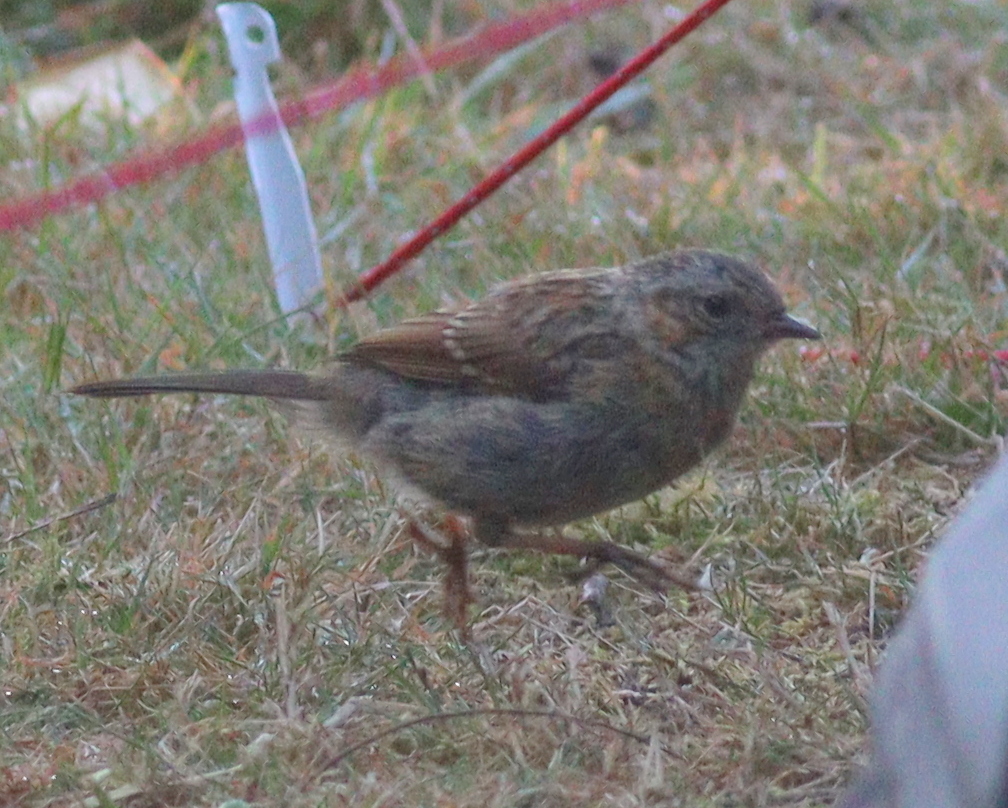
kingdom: Animalia
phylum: Chordata
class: Aves
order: Passeriformes
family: Prunellidae
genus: Prunella
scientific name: Prunella modularis
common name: Dunnock
